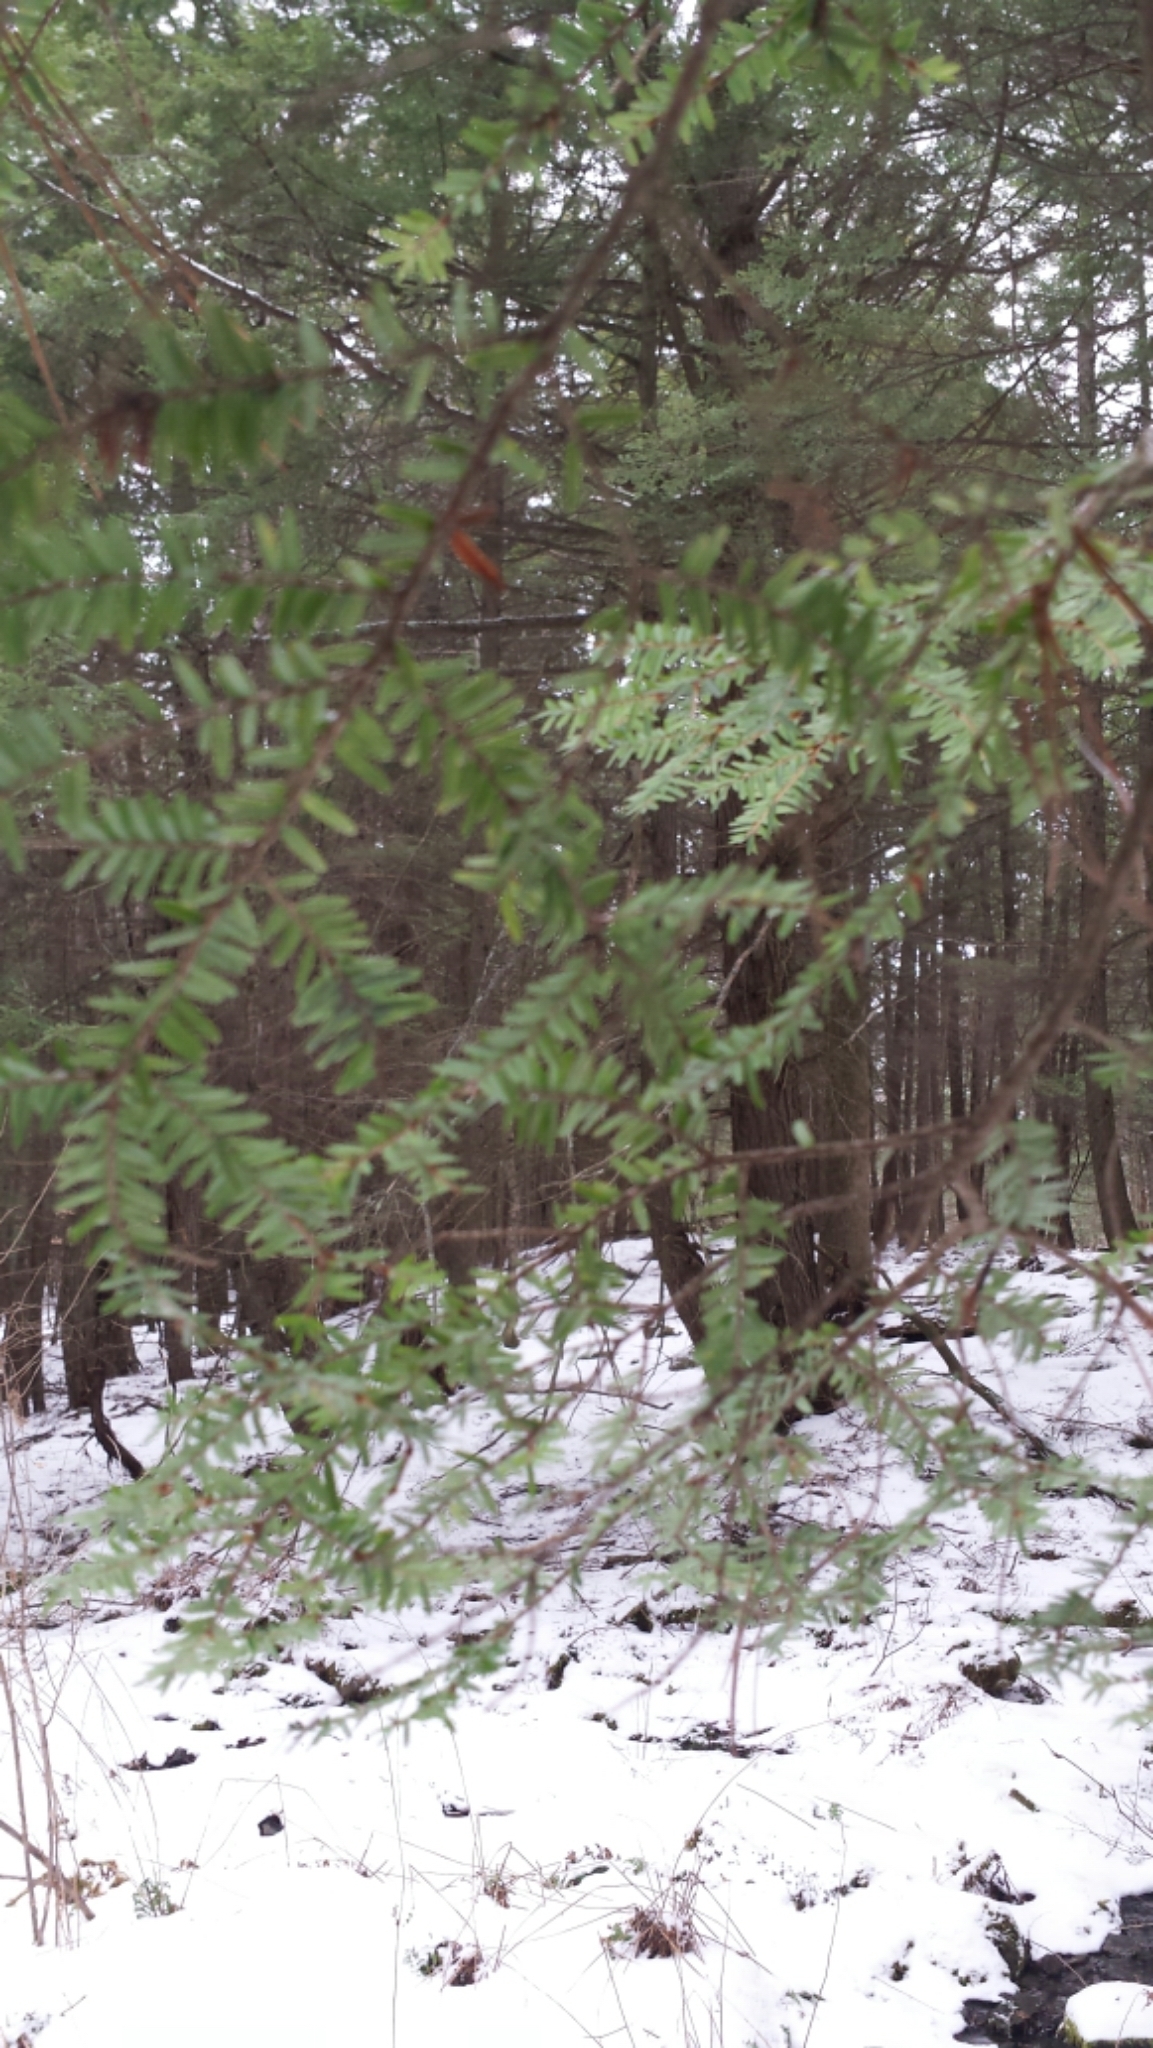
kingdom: Plantae
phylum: Tracheophyta
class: Pinopsida
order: Pinales
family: Pinaceae
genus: Tsuga
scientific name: Tsuga canadensis
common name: Eastern hemlock
